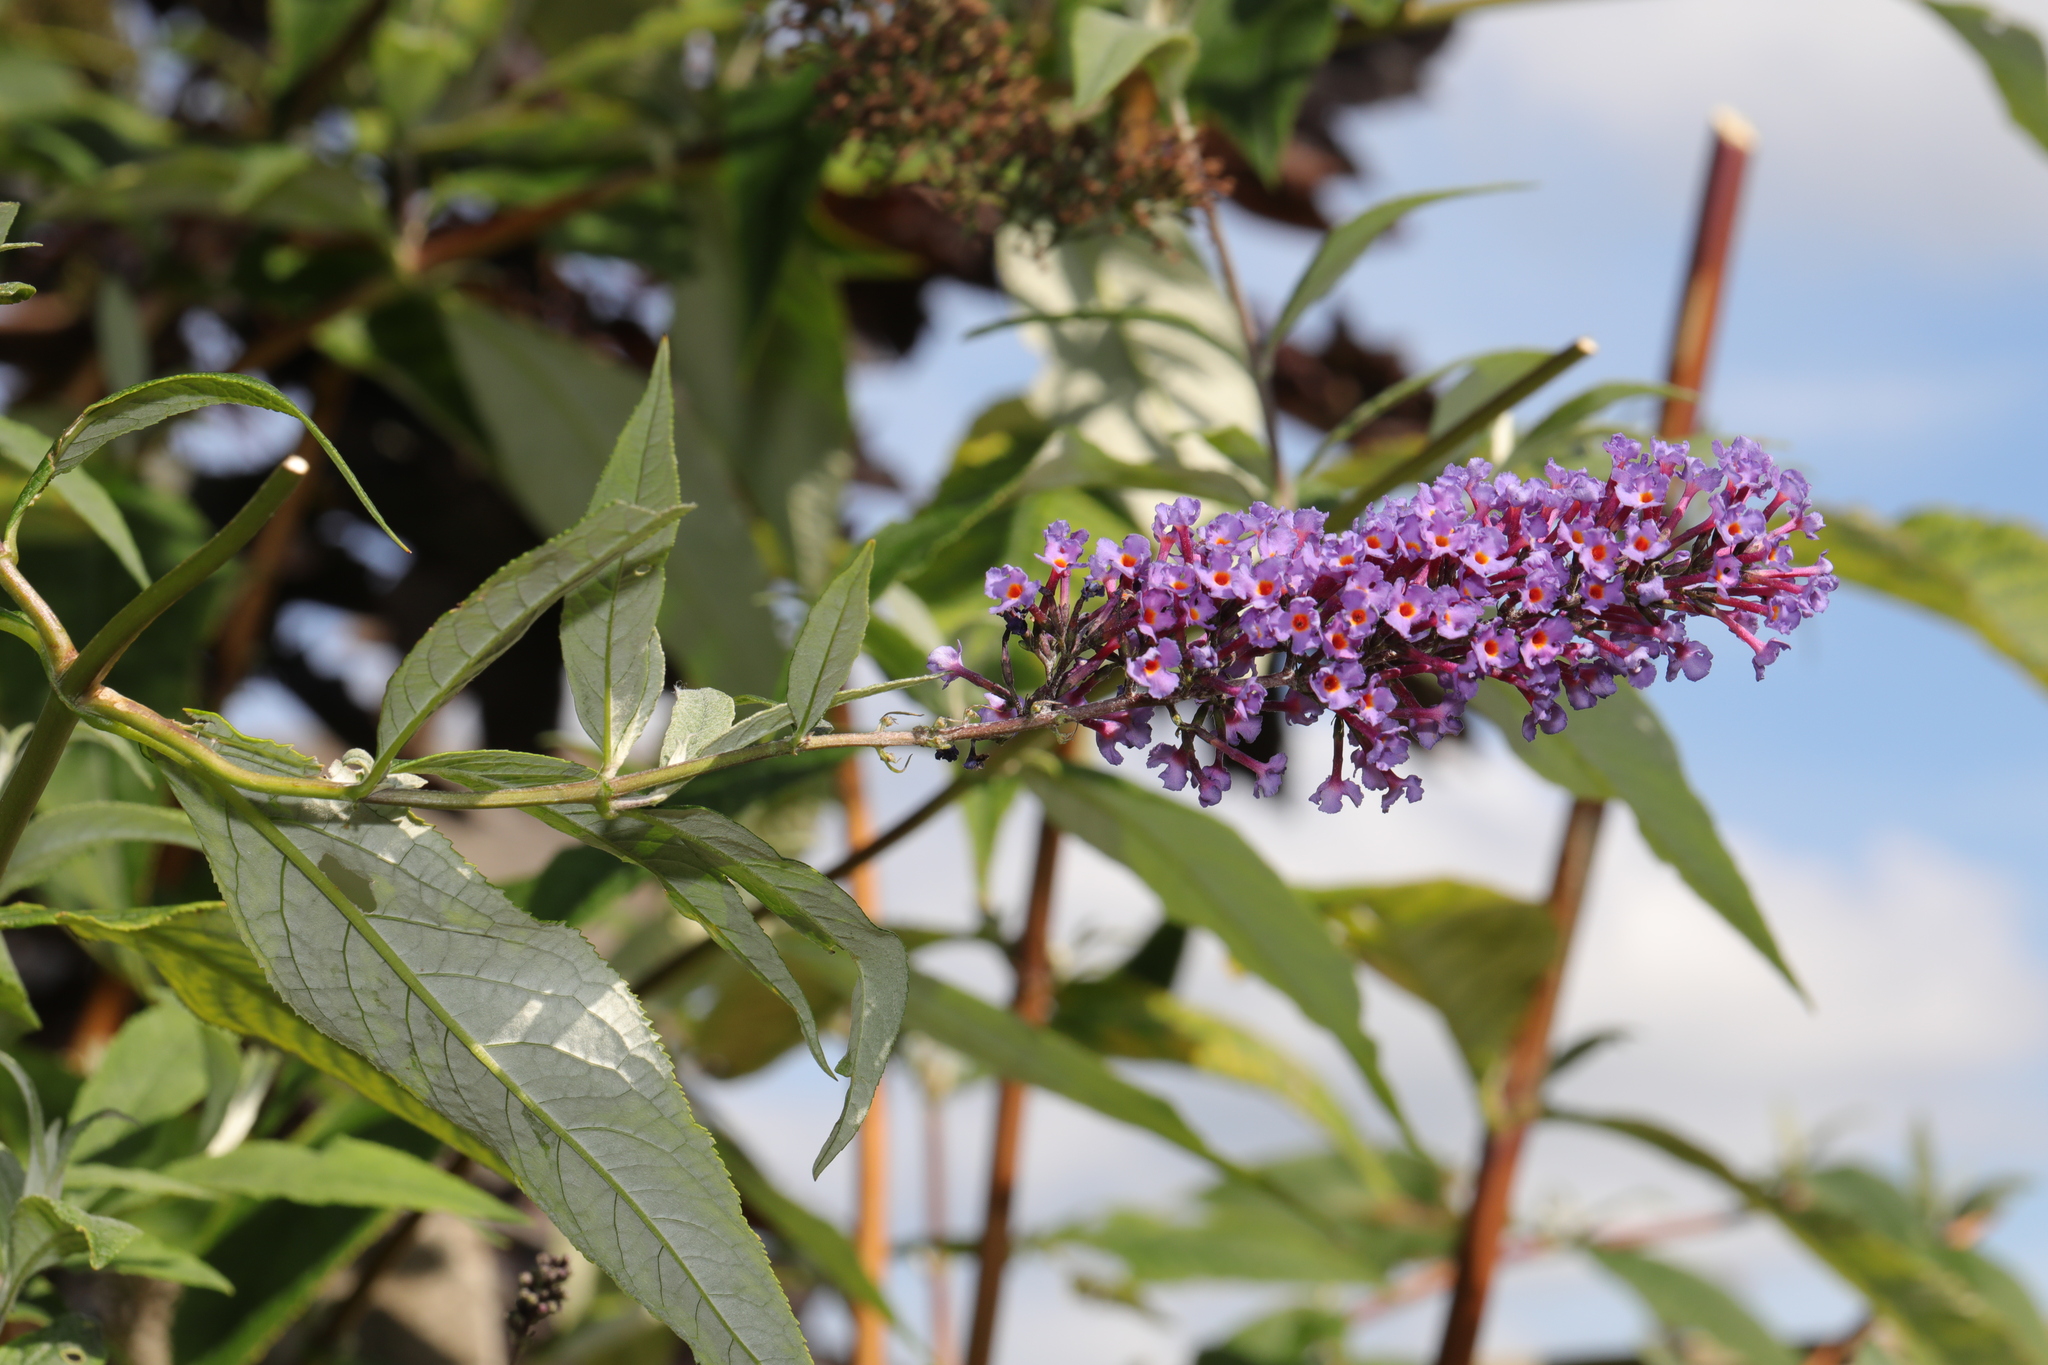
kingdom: Plantae
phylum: Tracheophyta
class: Magnoliopsida
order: Lamiales
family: Scrophulariaceae
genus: Buddleja
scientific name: Buddleja davidii
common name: Butterfly-bush
